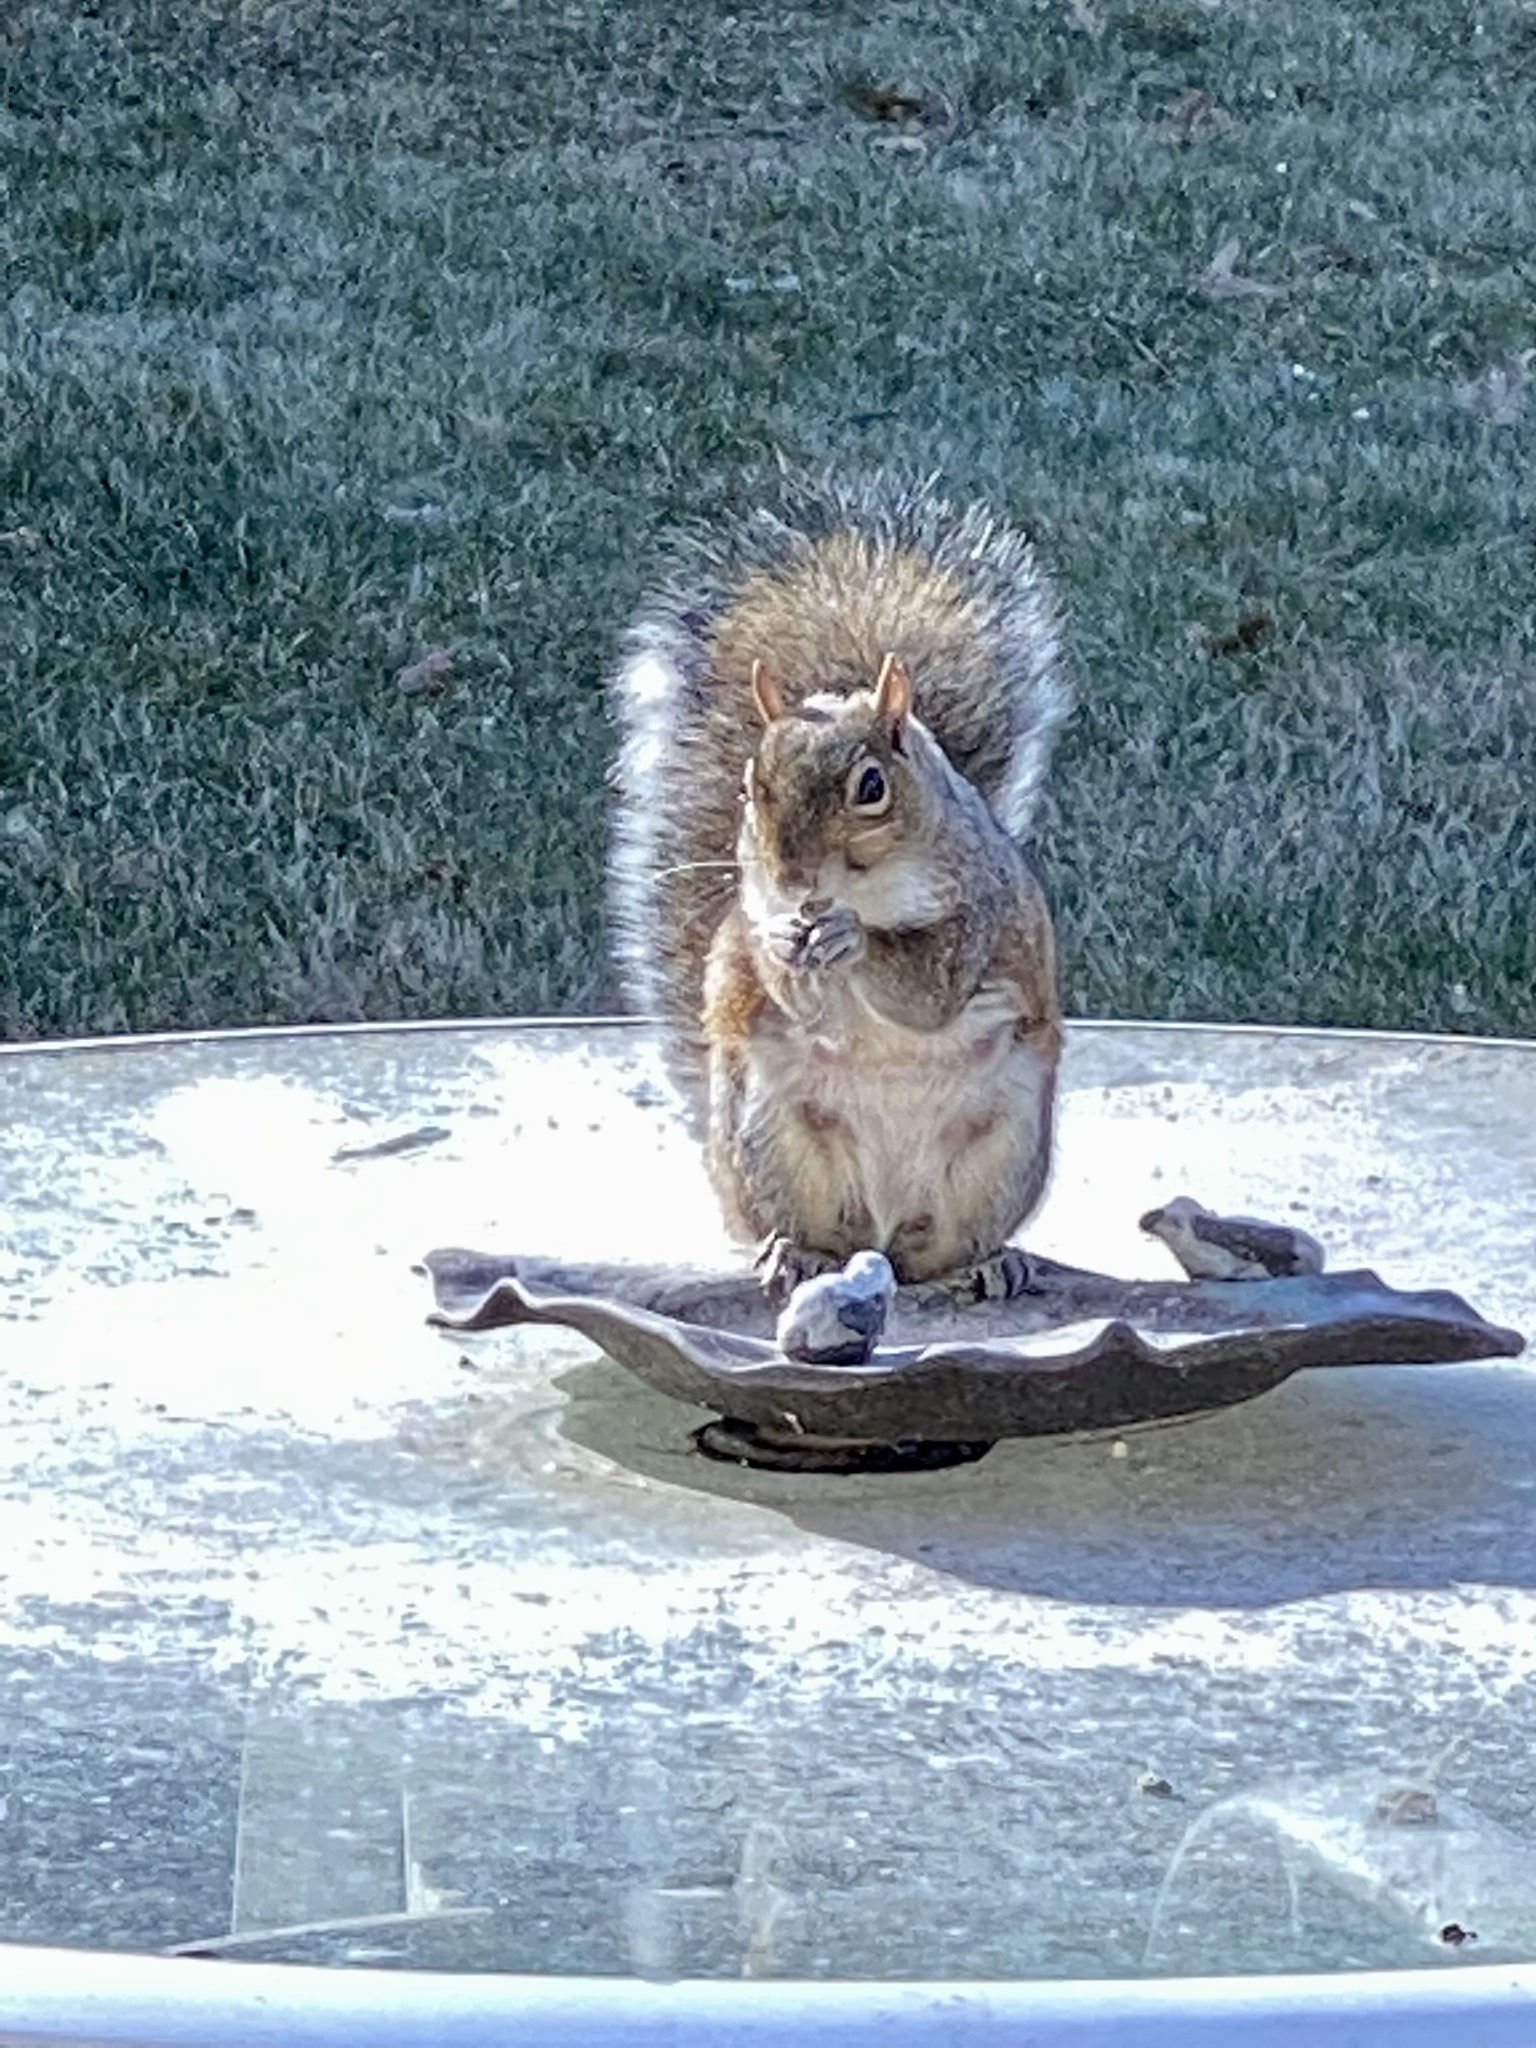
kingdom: Animalia
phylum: Chordata
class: Mammalia
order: Rodentia
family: Sciuridae
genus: Sciurus
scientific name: Sciurus carolinensis
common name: Eastern gray squirrel
